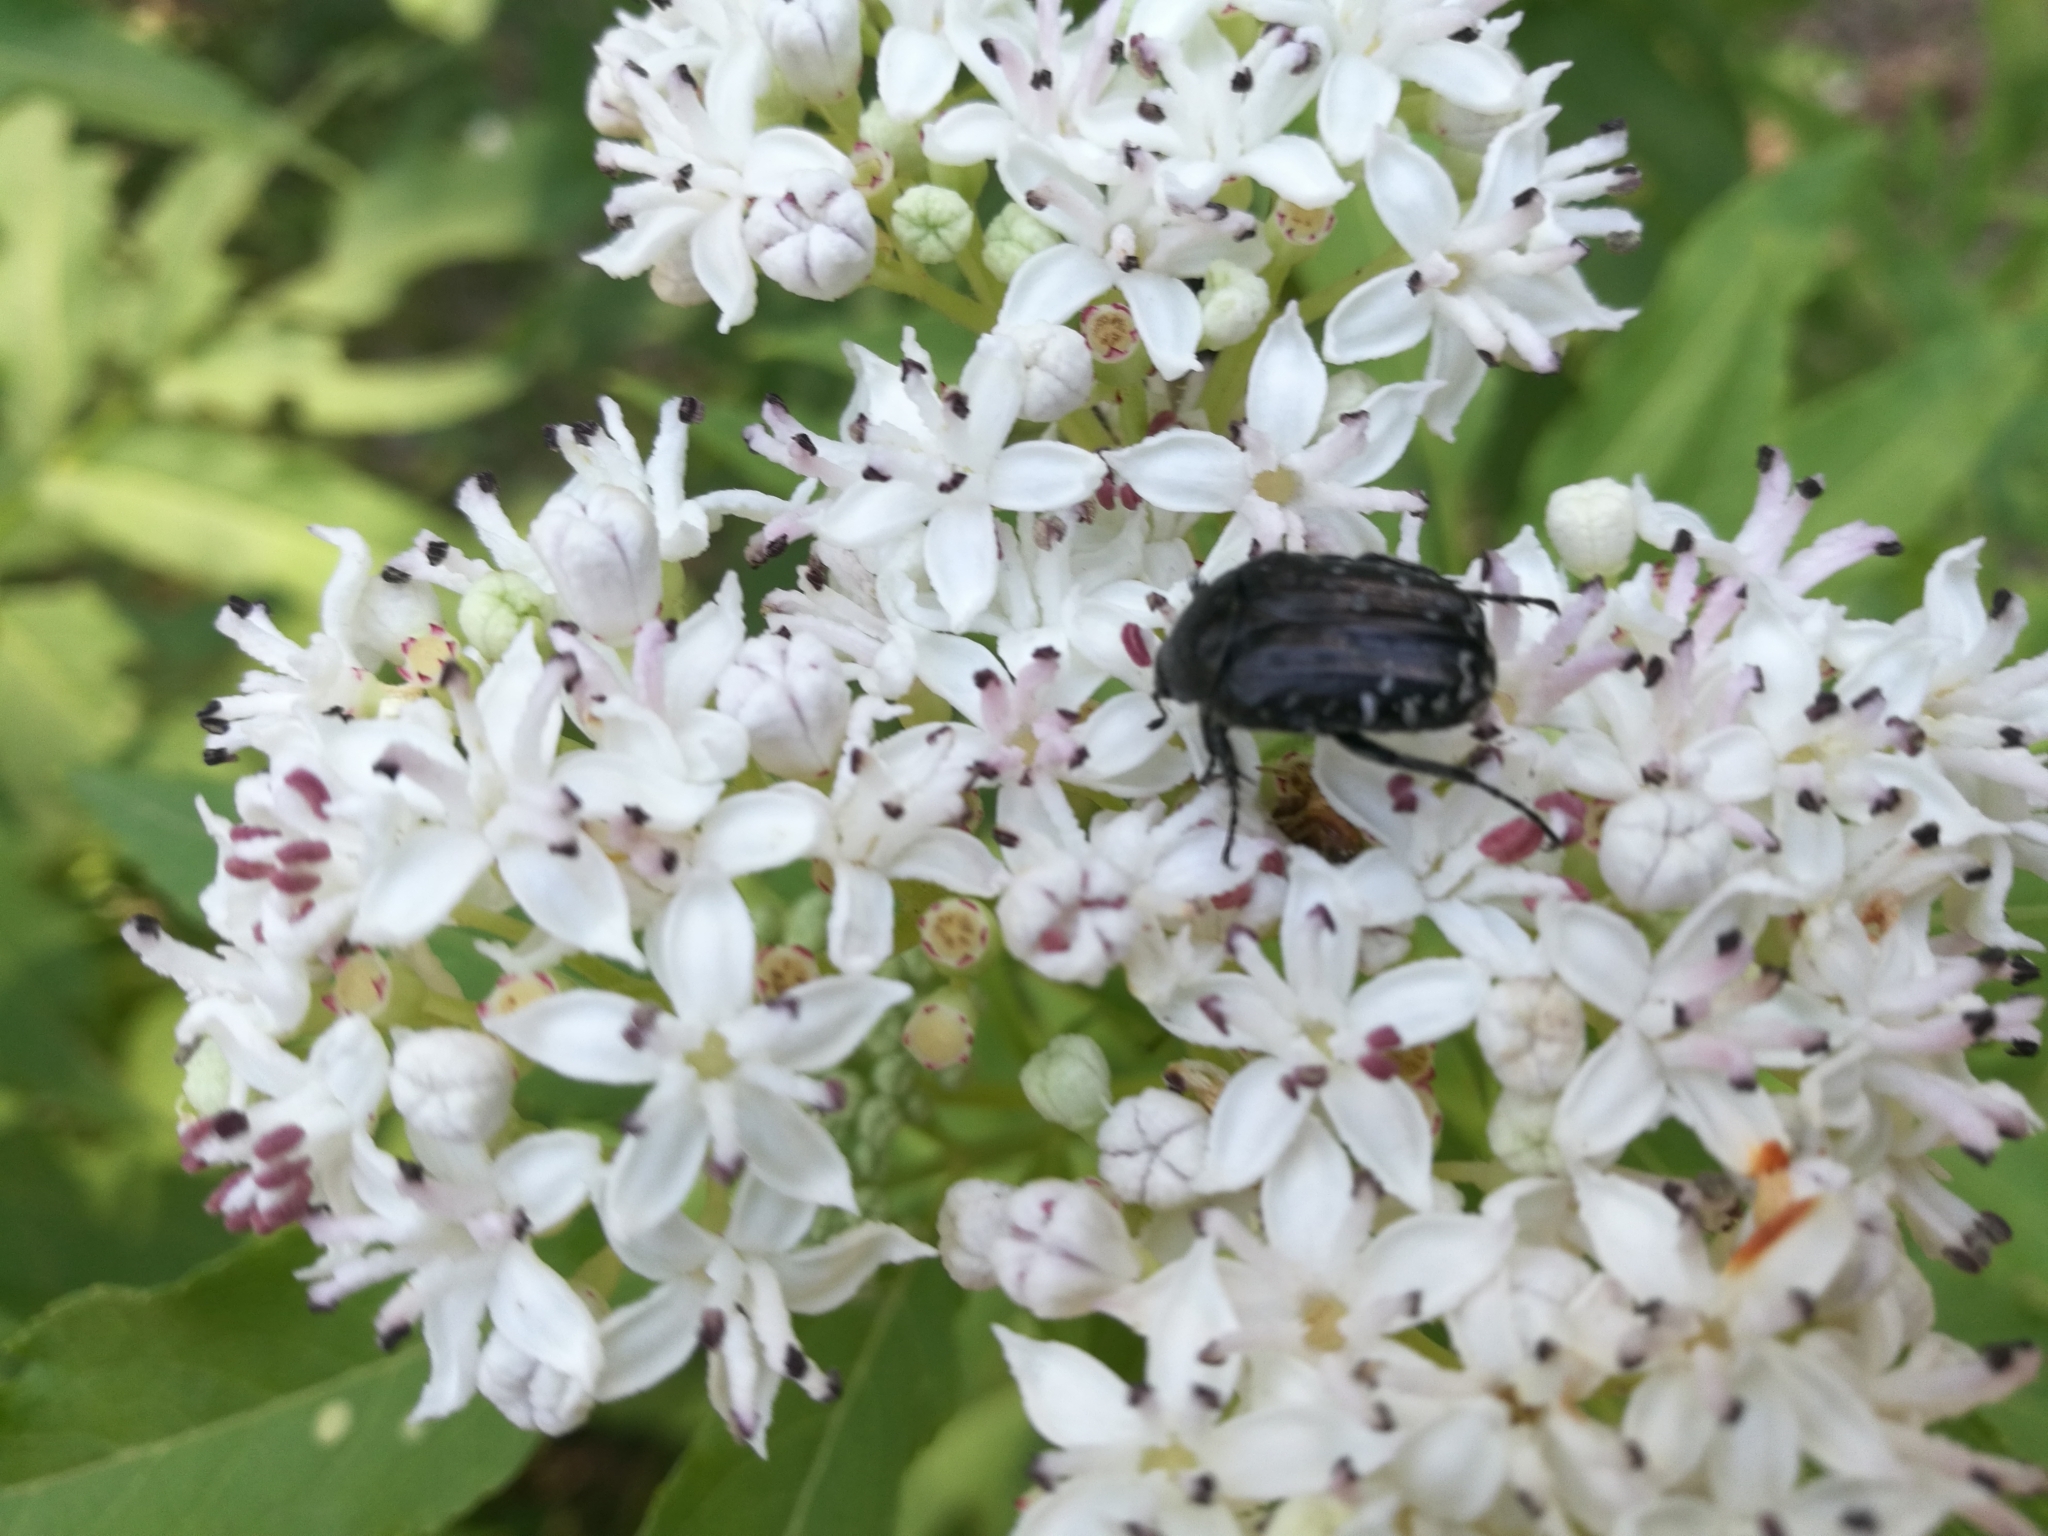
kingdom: Animalia
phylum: Arthropoda
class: Insecta
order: Coleoptera
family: Scarabaeidae
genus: Oxythyrea
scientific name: Oxythyrea funesta
